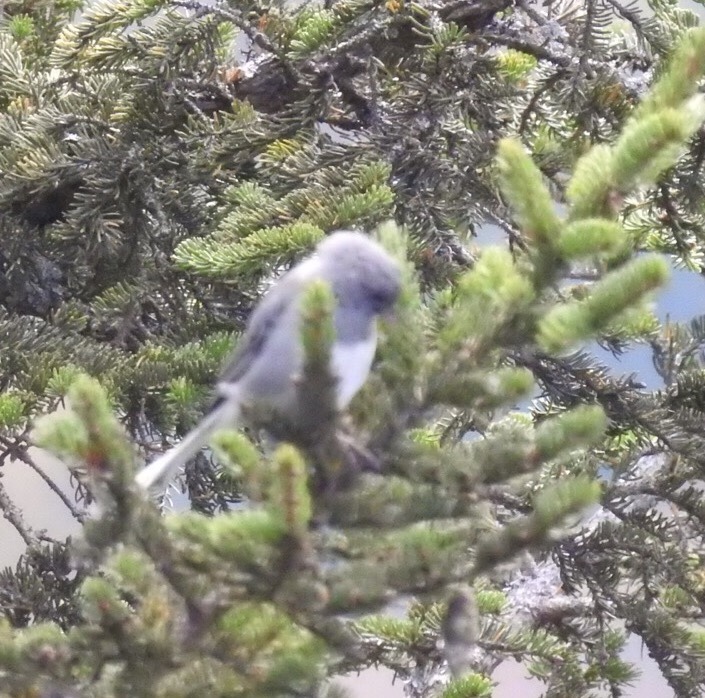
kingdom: Animalia
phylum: Chordata
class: Aves
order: Passeriformes
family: Passerellidae
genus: Junco
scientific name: Junco hyemalis
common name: Dark-eyed junco
